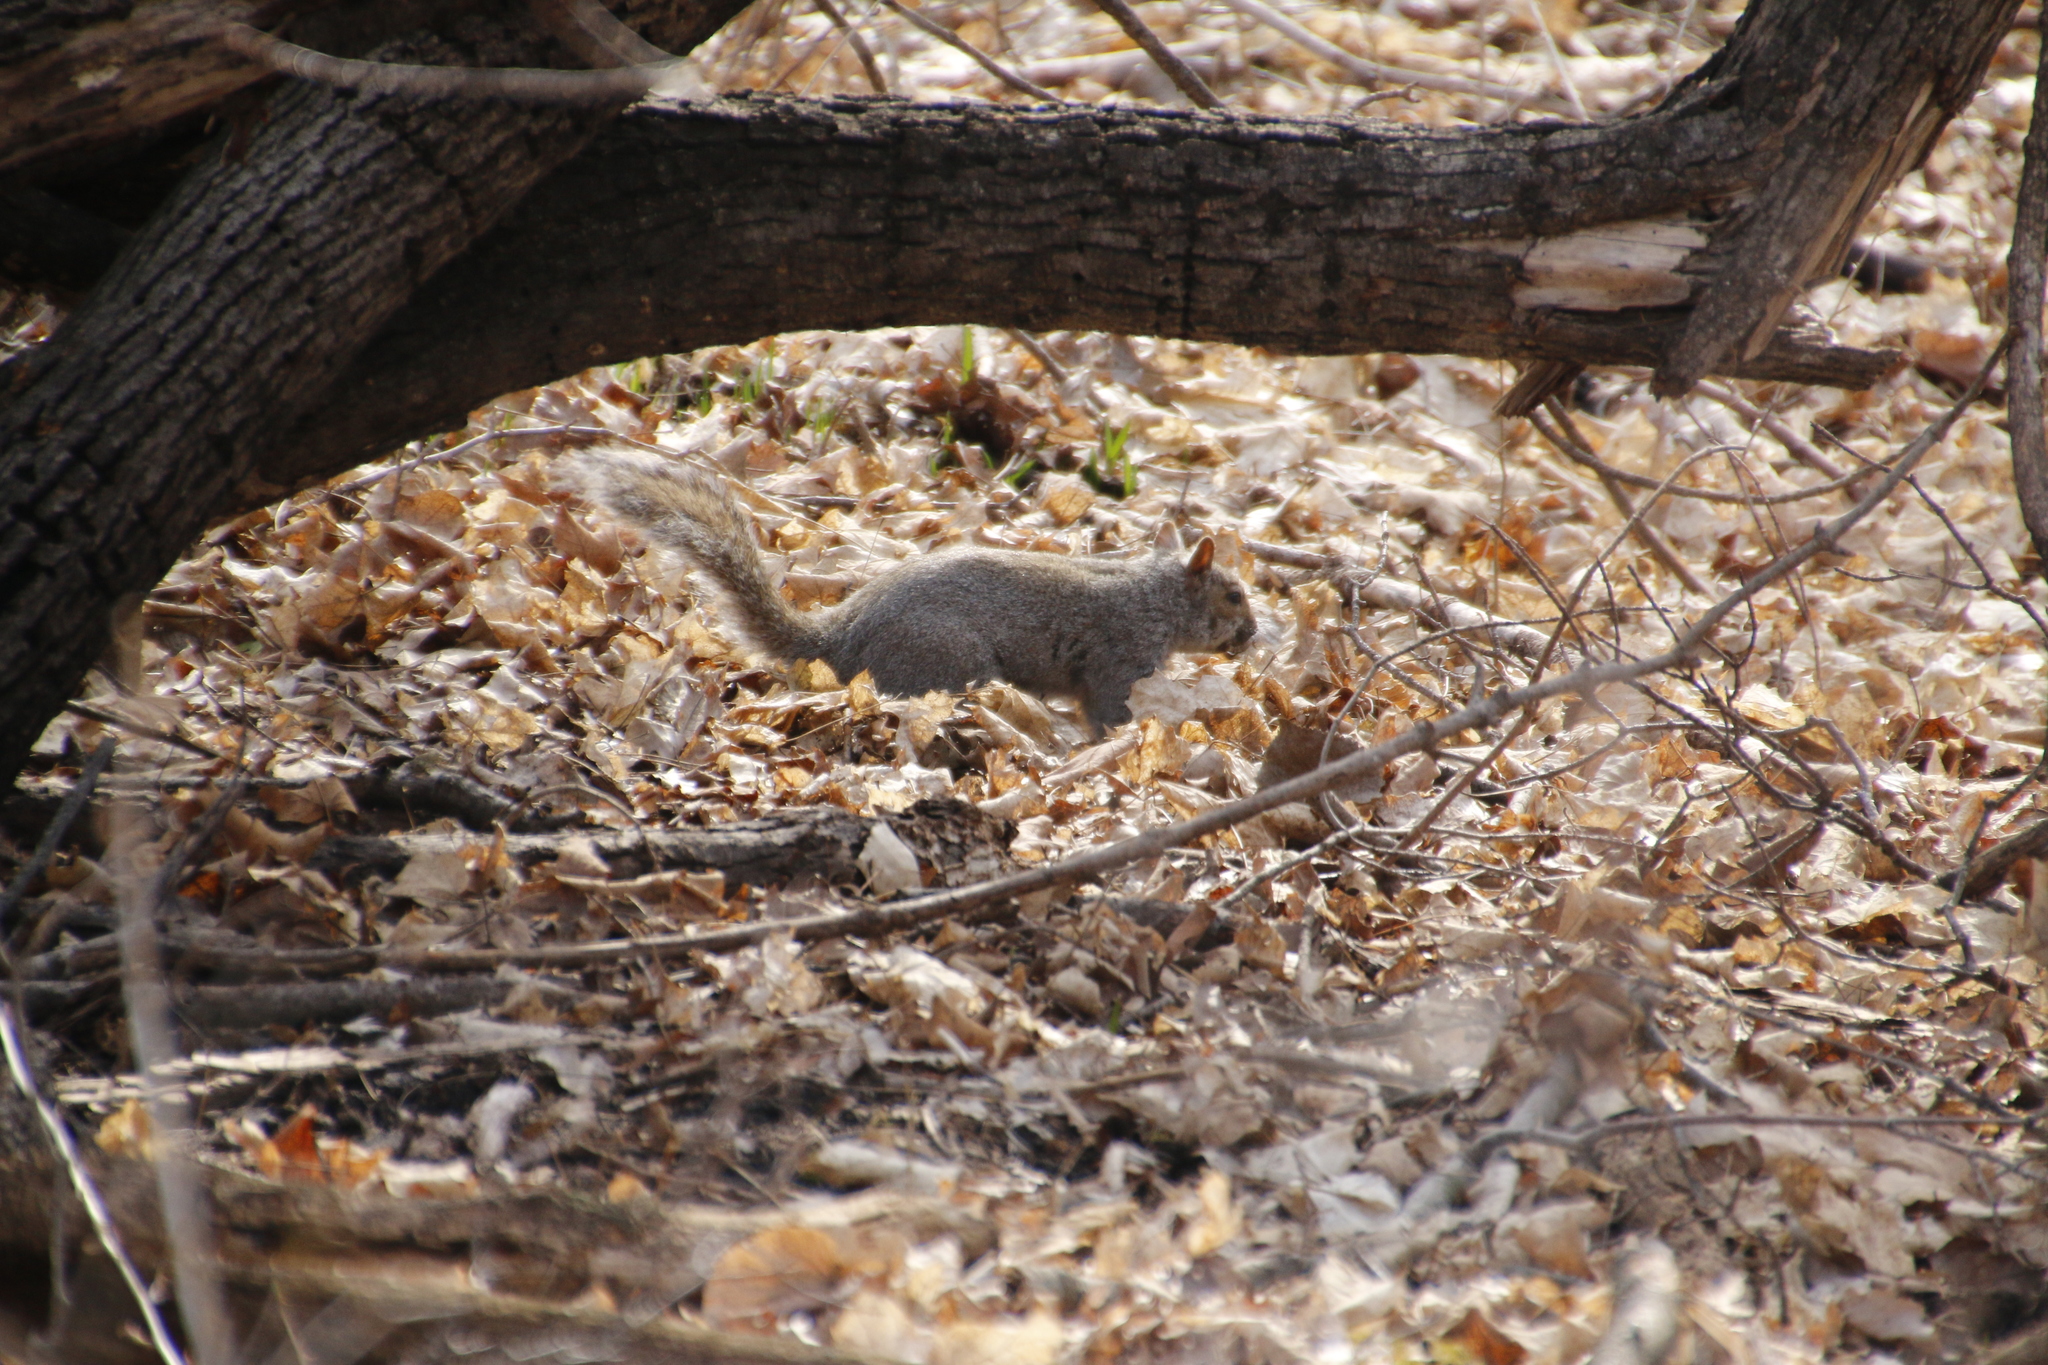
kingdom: Animalia
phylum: Chordata
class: Mammalia
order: Rodentia
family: Sciuridae
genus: Sciurus
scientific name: Sciurus carolinensis
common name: Eastern gray squirrel
